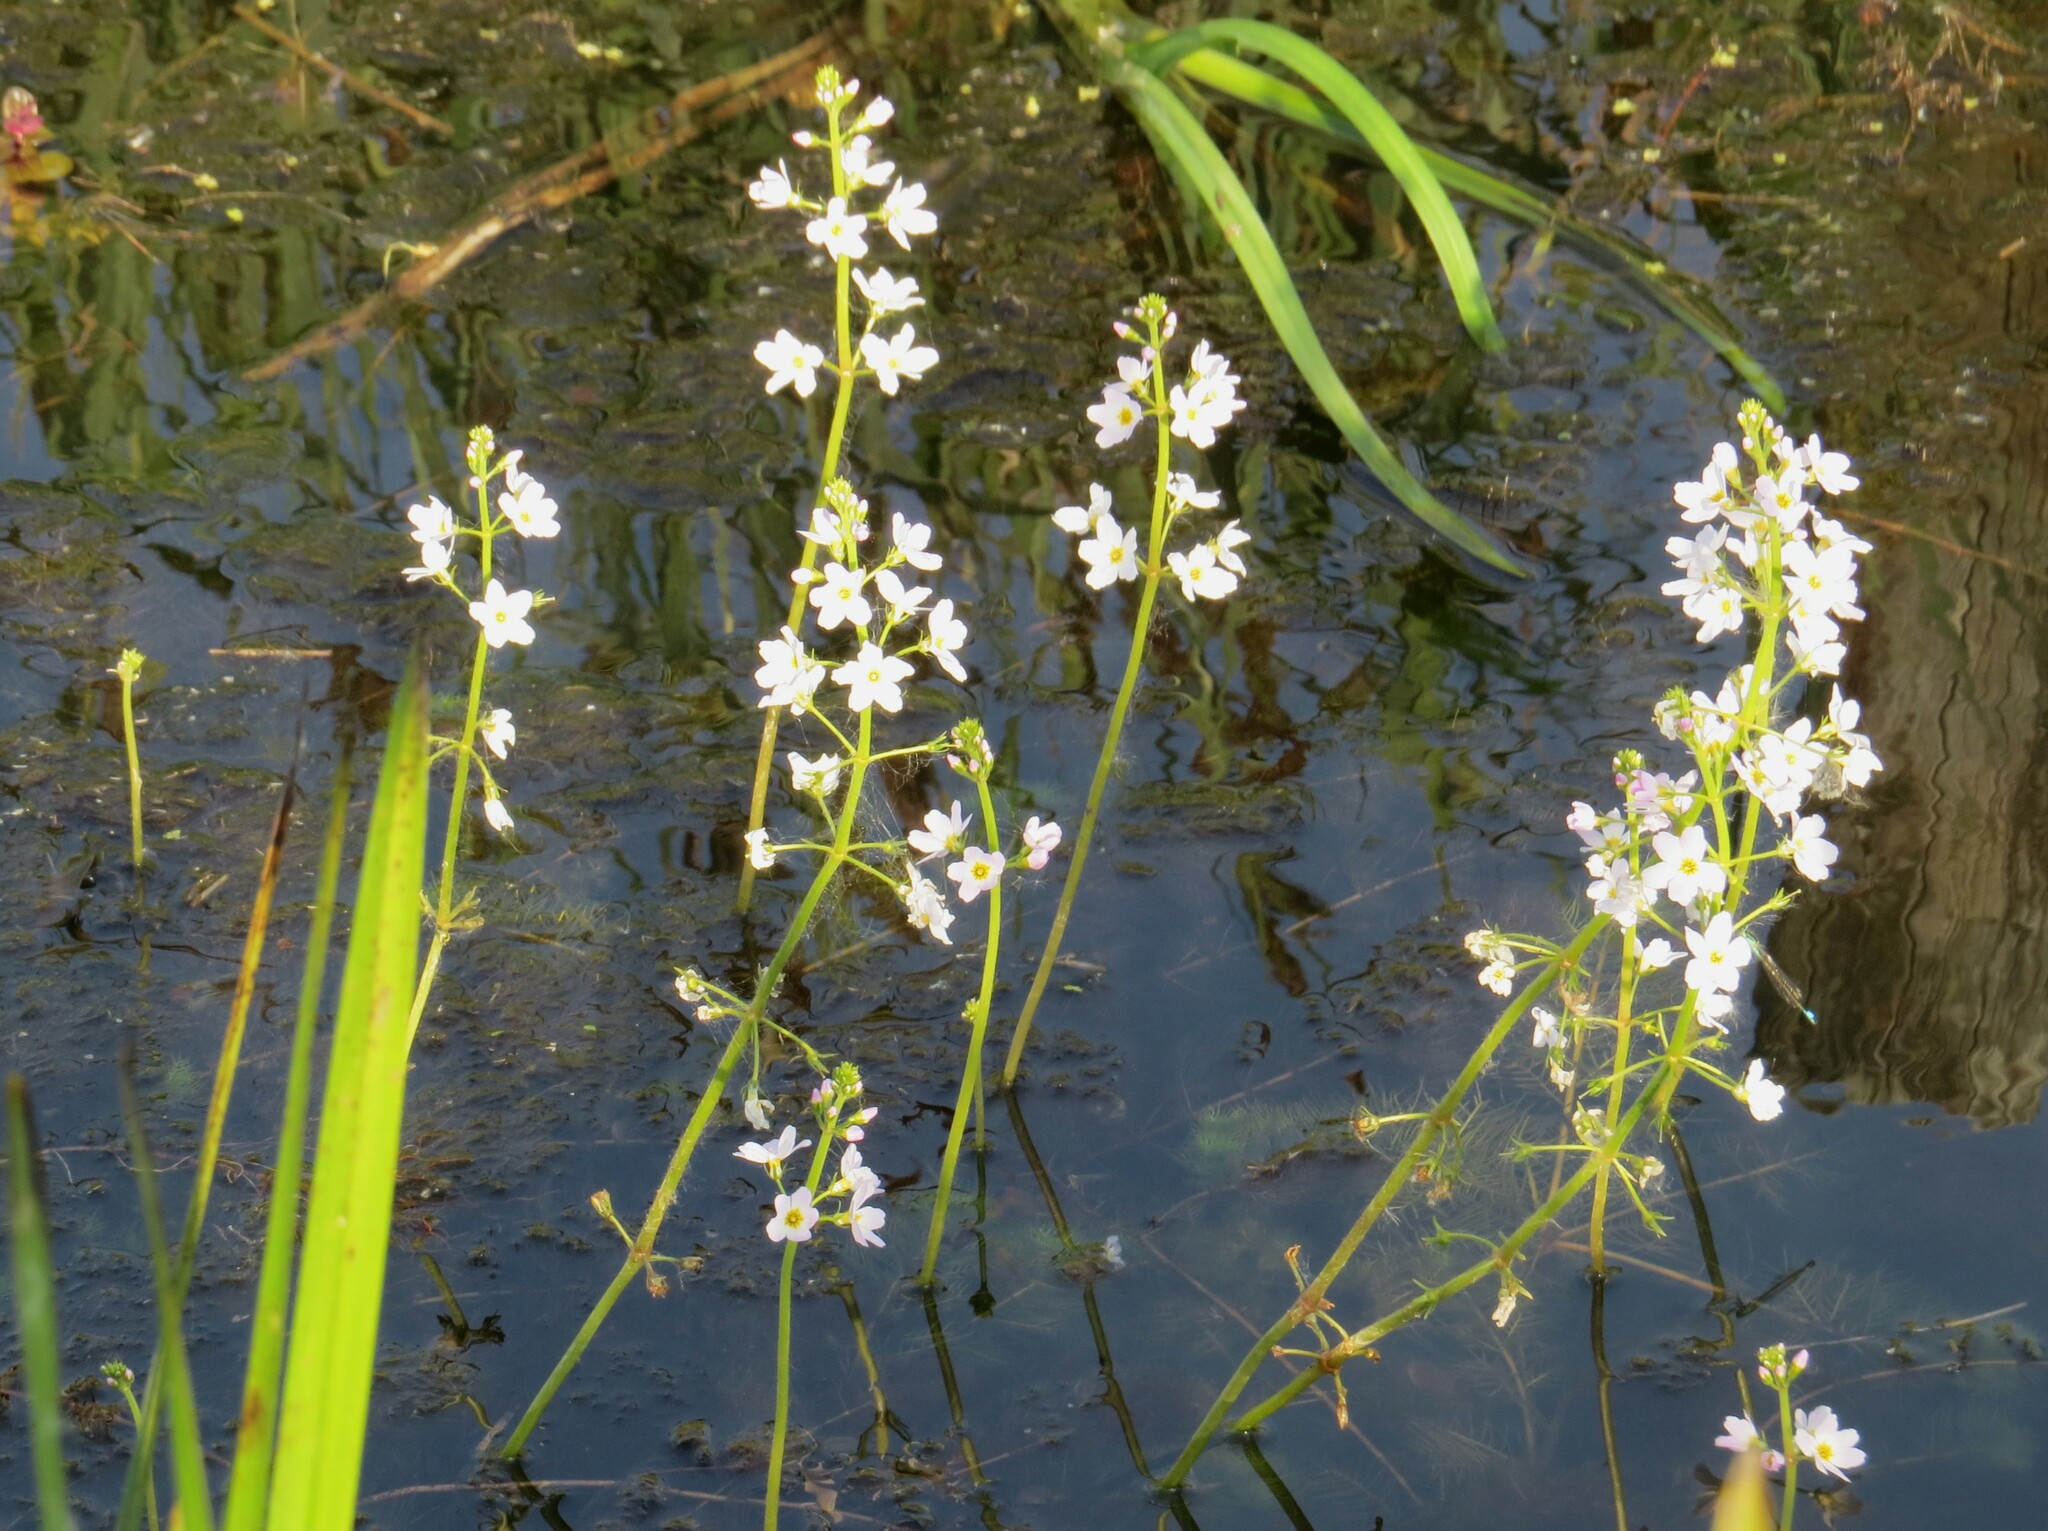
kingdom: Plantae
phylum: Tracheophyta
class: Magnoliopsida
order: Ericales
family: Primulaceae
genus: Hottonia
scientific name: Hottonia palustris
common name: Water-violet
